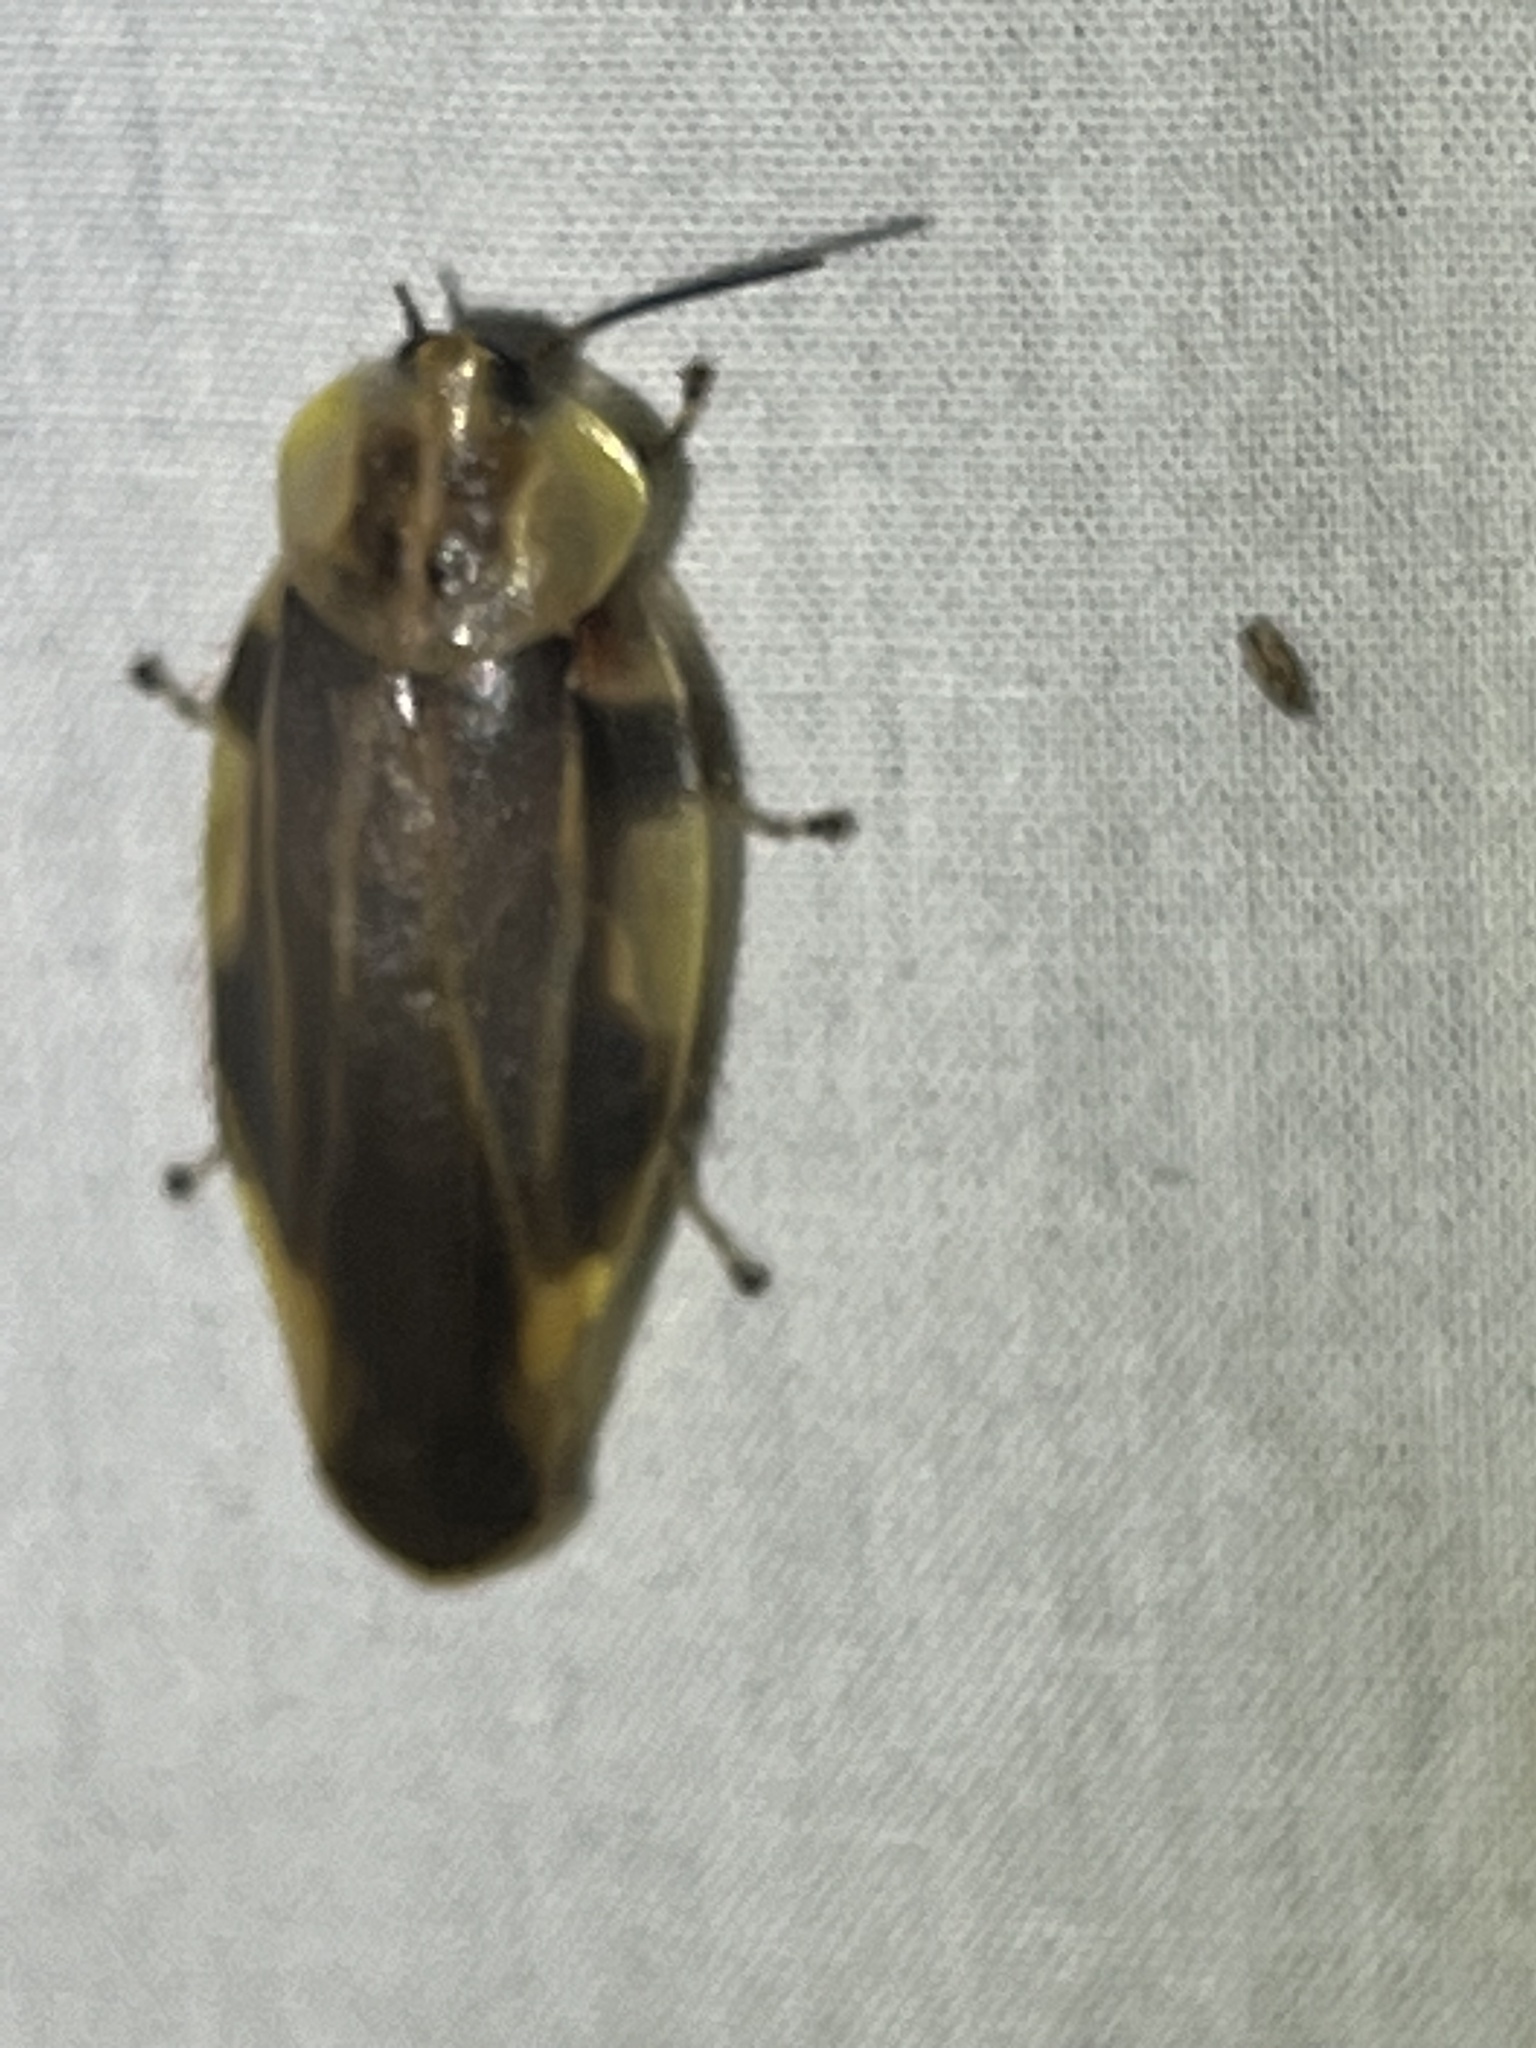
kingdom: Animalia
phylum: Arthropoda
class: Insecta
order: Blattodea
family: Blaberidae
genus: Achroblatta
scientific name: Achroblatta luteola
